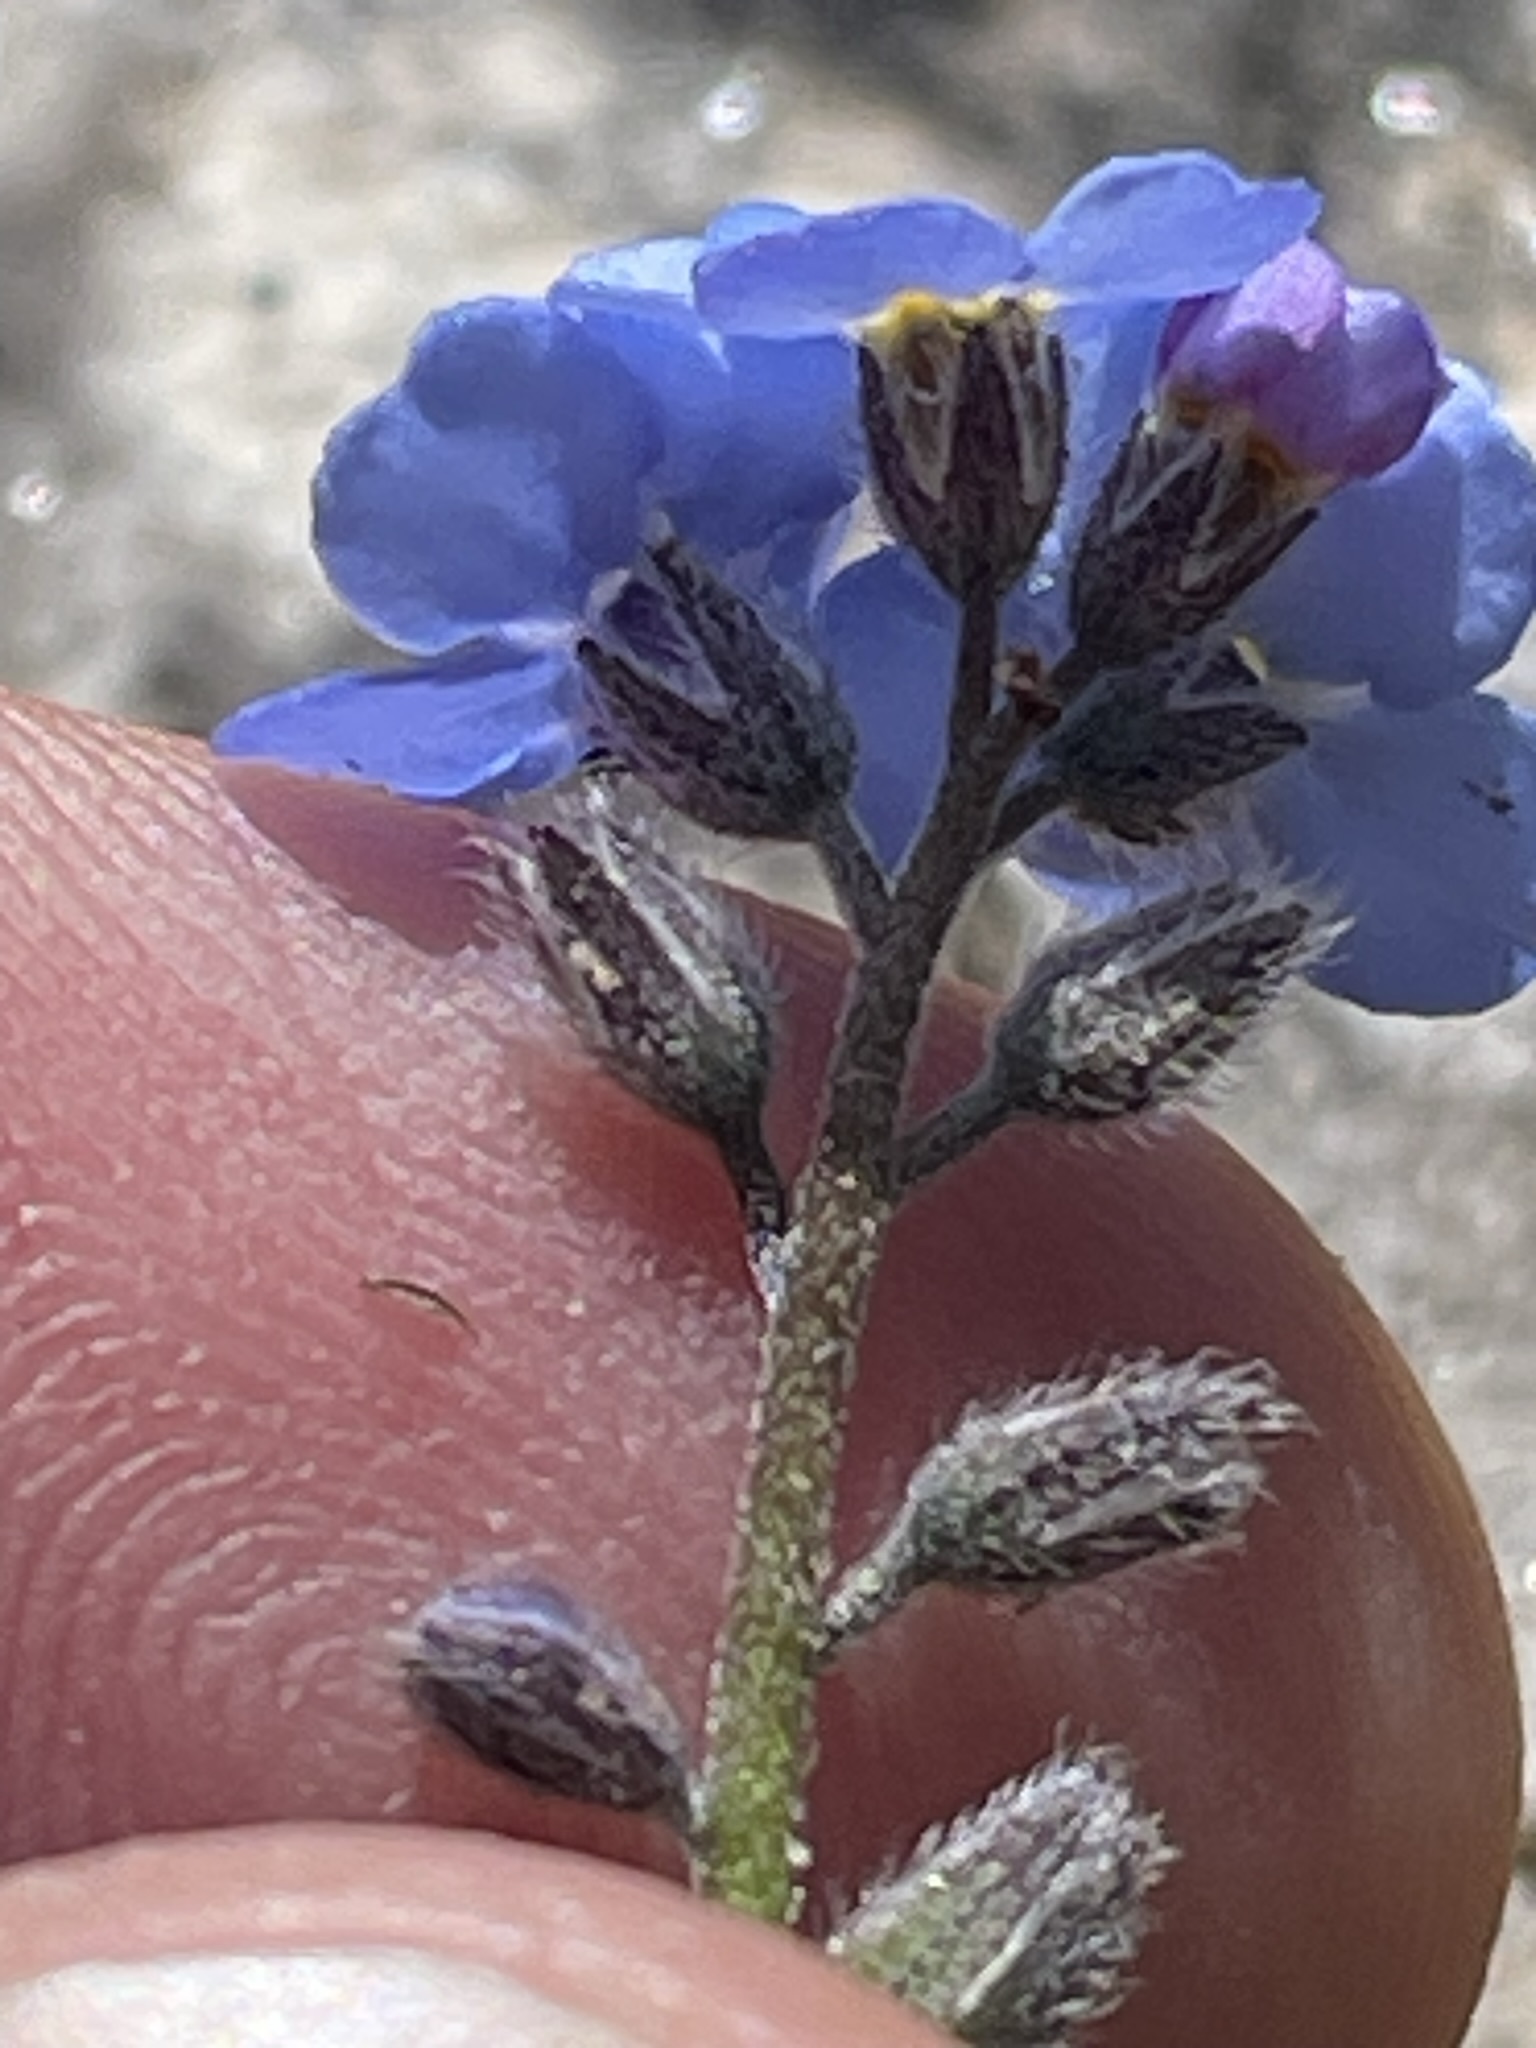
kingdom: Plantae
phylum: Tracheophyta
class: Magnoliopsida
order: Boraginales
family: Boraginaceae
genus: Myosotis
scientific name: Myosotis alpestris
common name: Alpine forget-me-not
